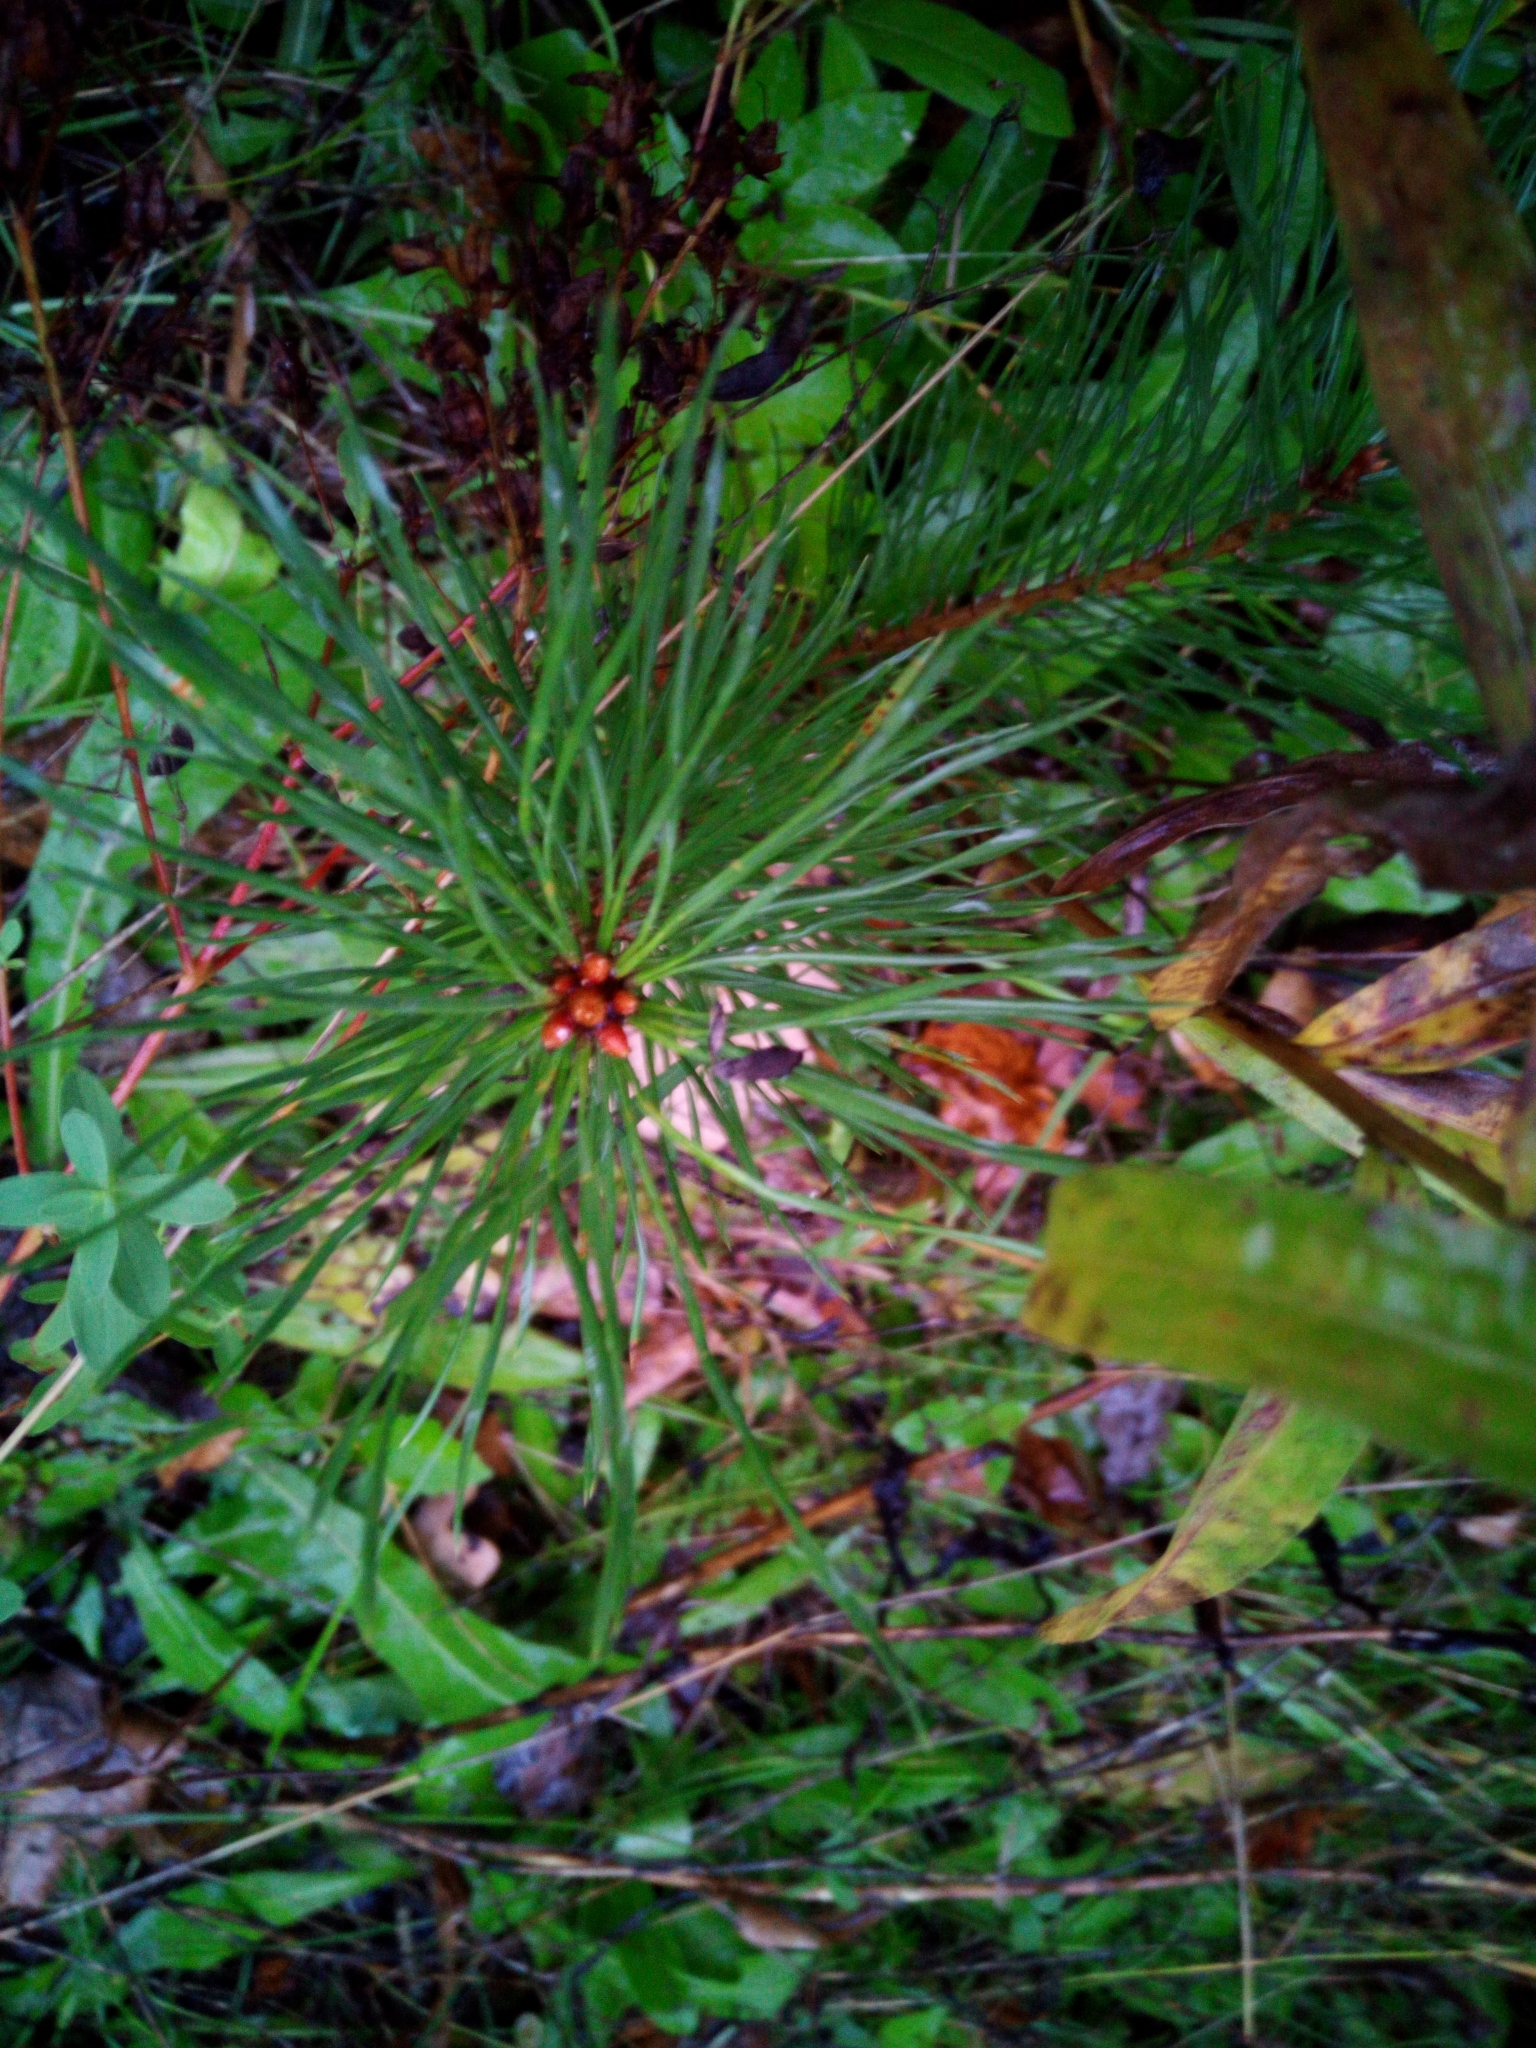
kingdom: Plantae
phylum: Tracheophyta
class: Pinopsida
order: Pinales
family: Pinaceae
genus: Pinus
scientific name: Pinus sylvestris
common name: Scots pine
